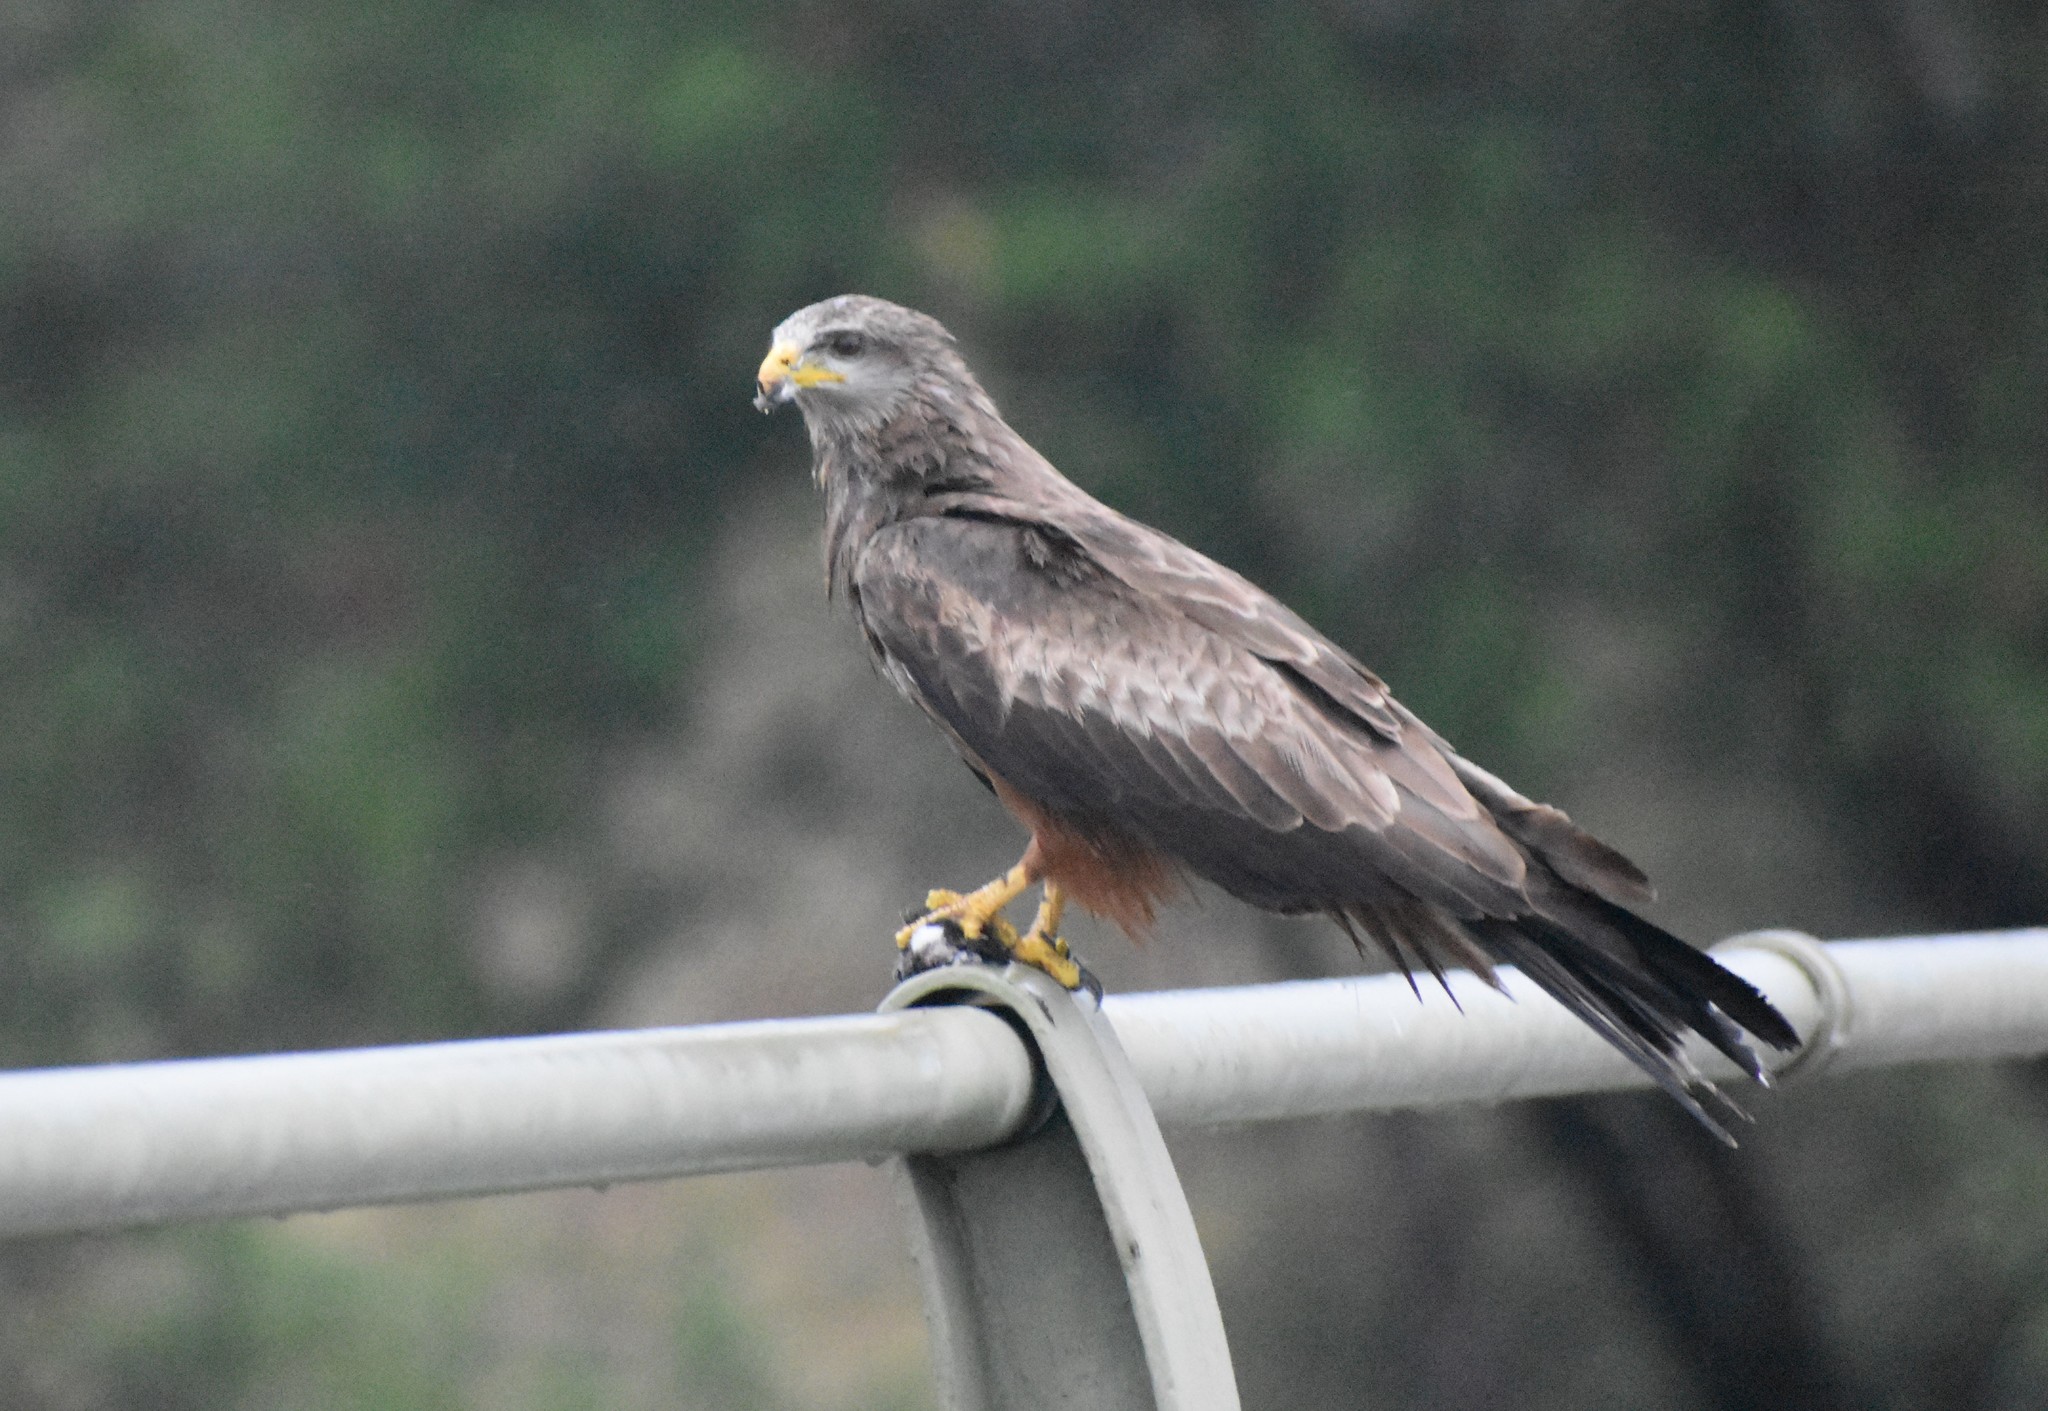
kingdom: Animalia
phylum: Chordata
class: Aves
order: Accipitriformes
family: Accipitridae
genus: Milvus
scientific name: Milvus migrans
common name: Black kite
